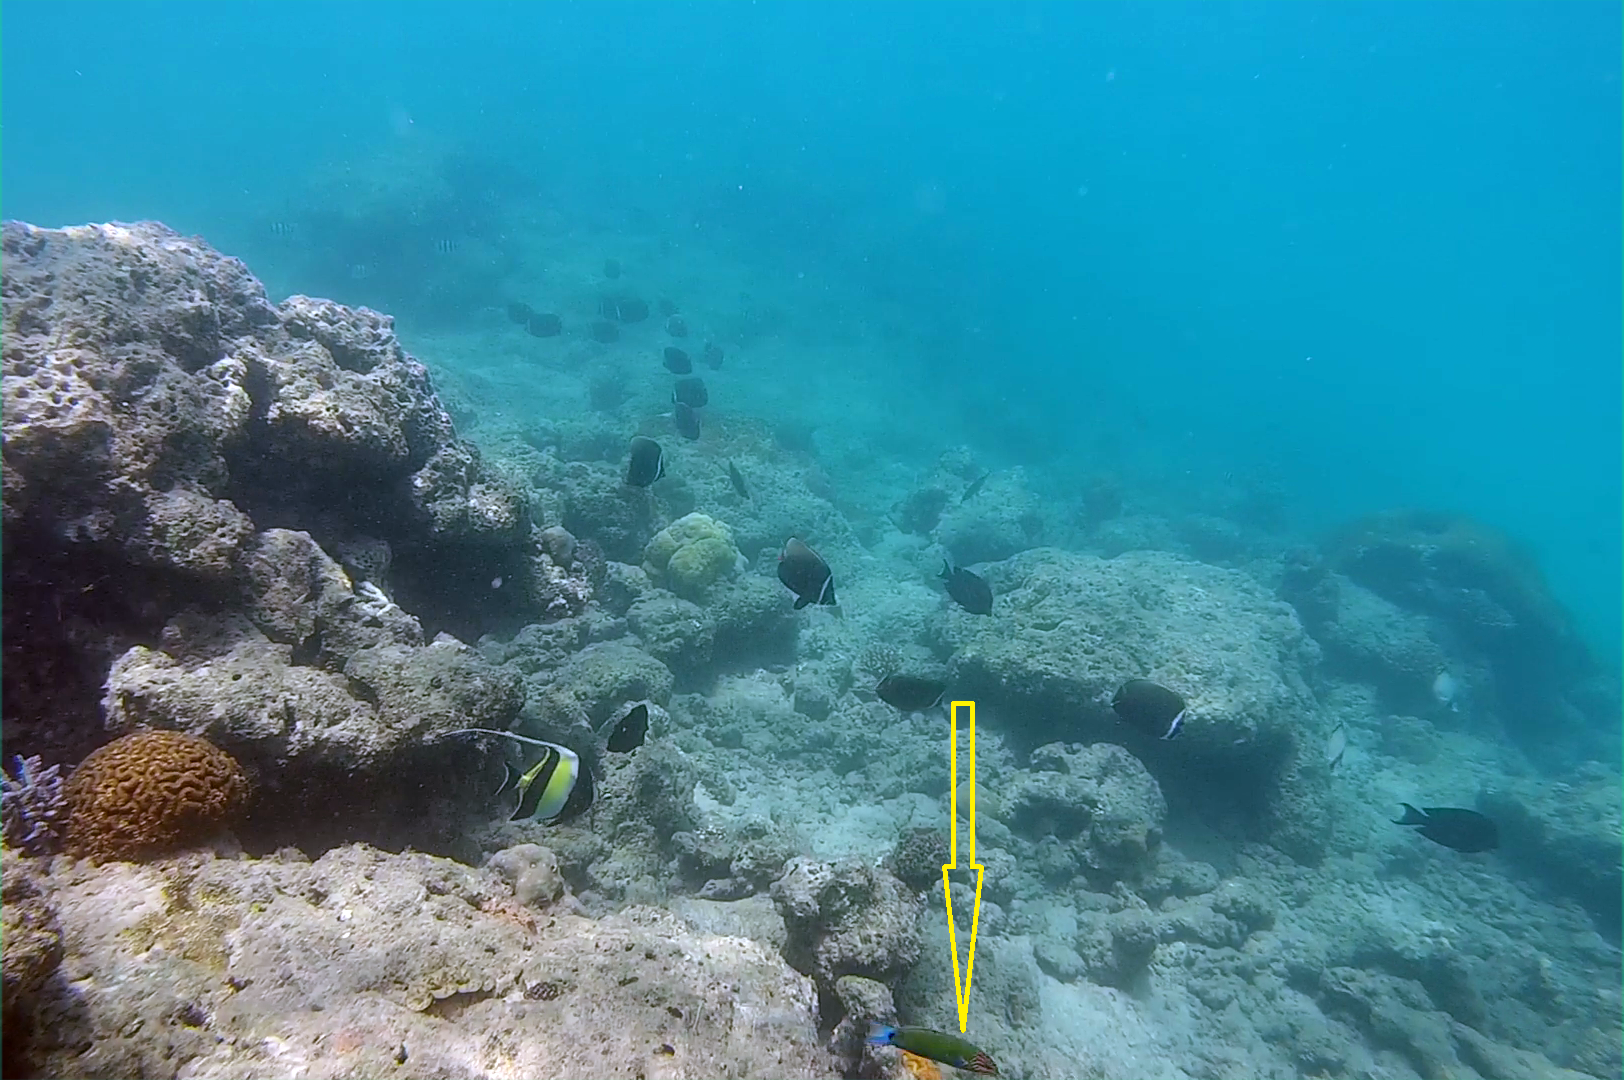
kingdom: Animalia
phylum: Chordata
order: Perciformes
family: Labridae
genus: Thalassoma
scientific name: Thalassoma lunare
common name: Blue wrasse
